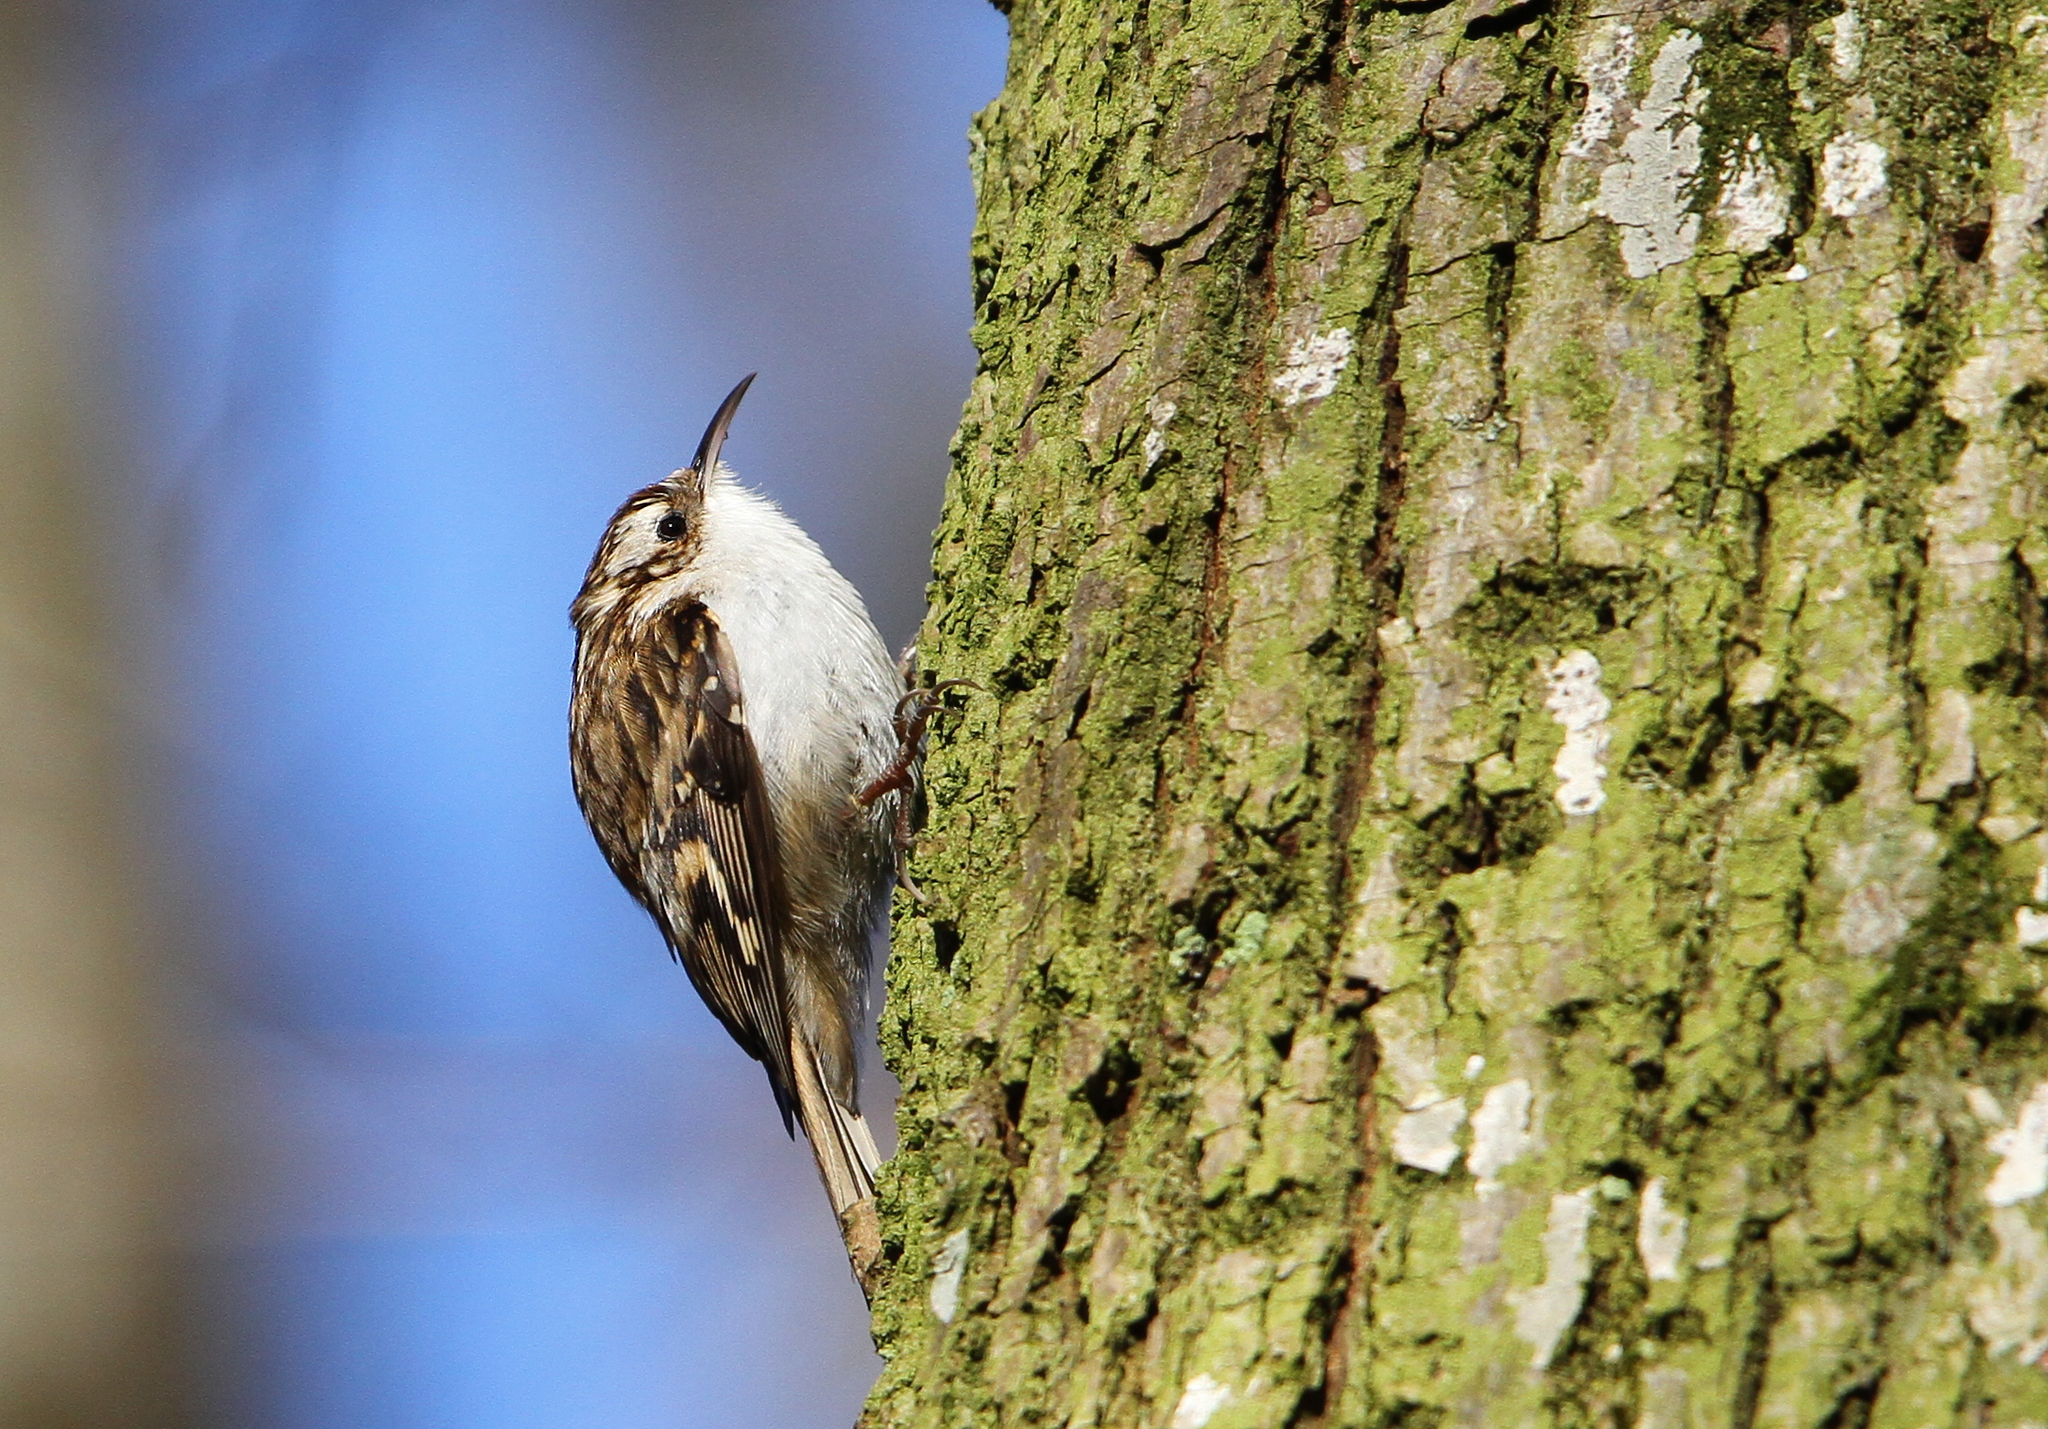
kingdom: Animalia
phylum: Chordata
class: Aves
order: Passeriformes
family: Certhiidae
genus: Certhia
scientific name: Certhia familiaris
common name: Eurasian treecreeper
